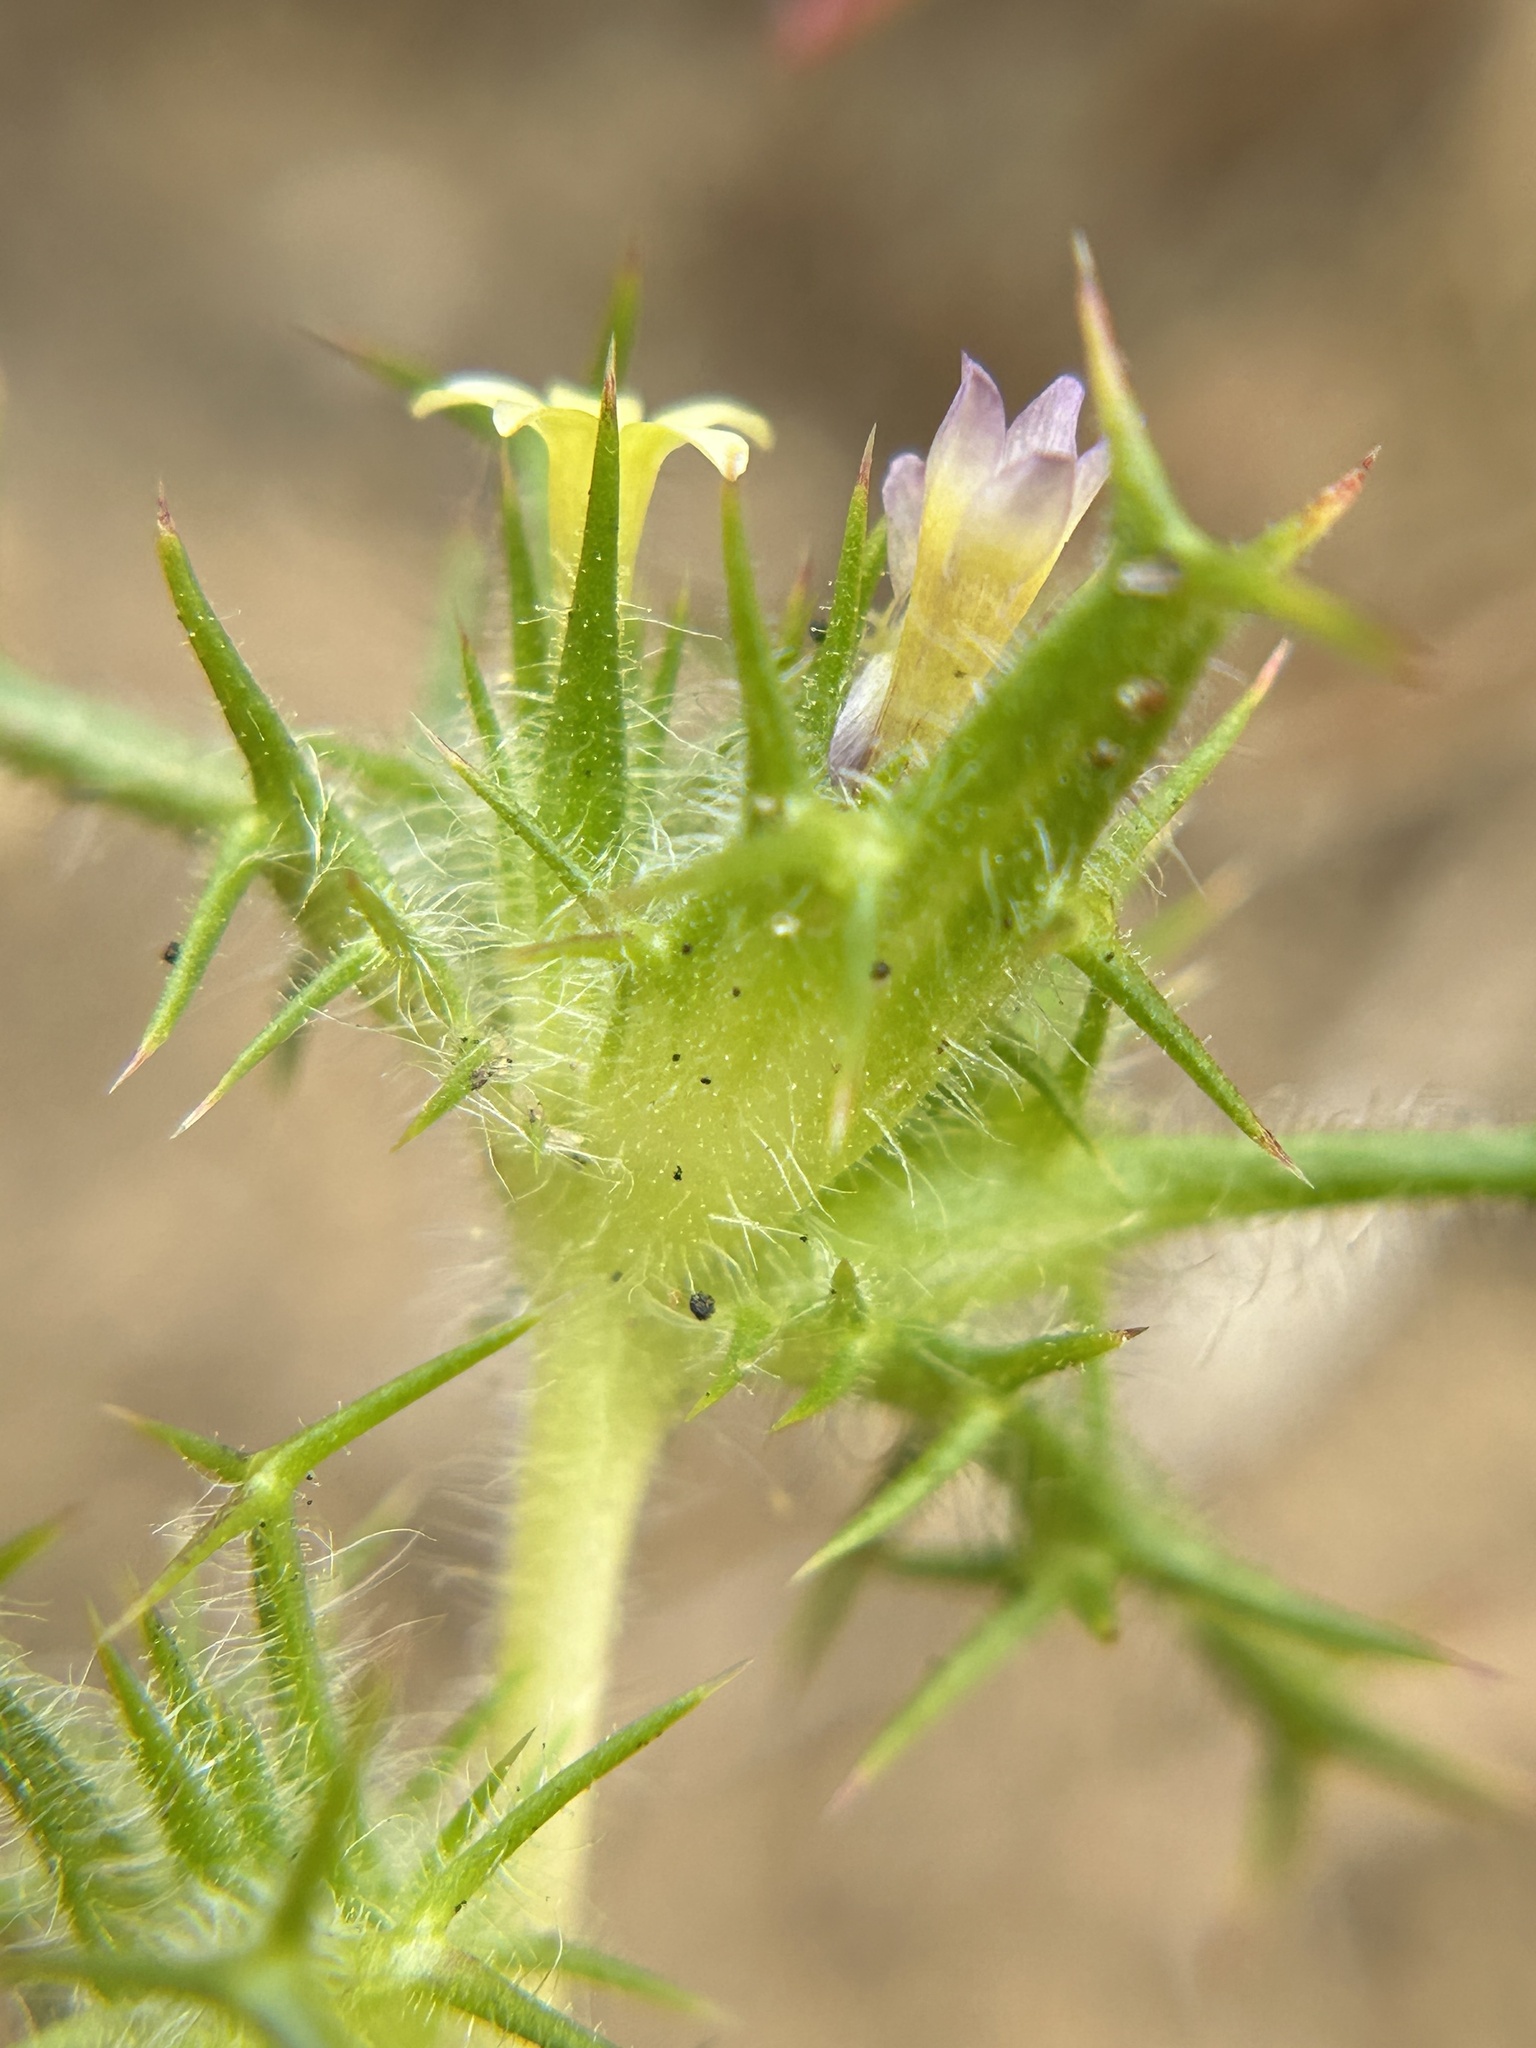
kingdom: Plantae
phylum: Tracheophyta
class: Magnoliopsida
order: Ericales
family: Polemoniaceae
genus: Navarretia
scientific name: Navarretia hamata
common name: Hooked navarretia
